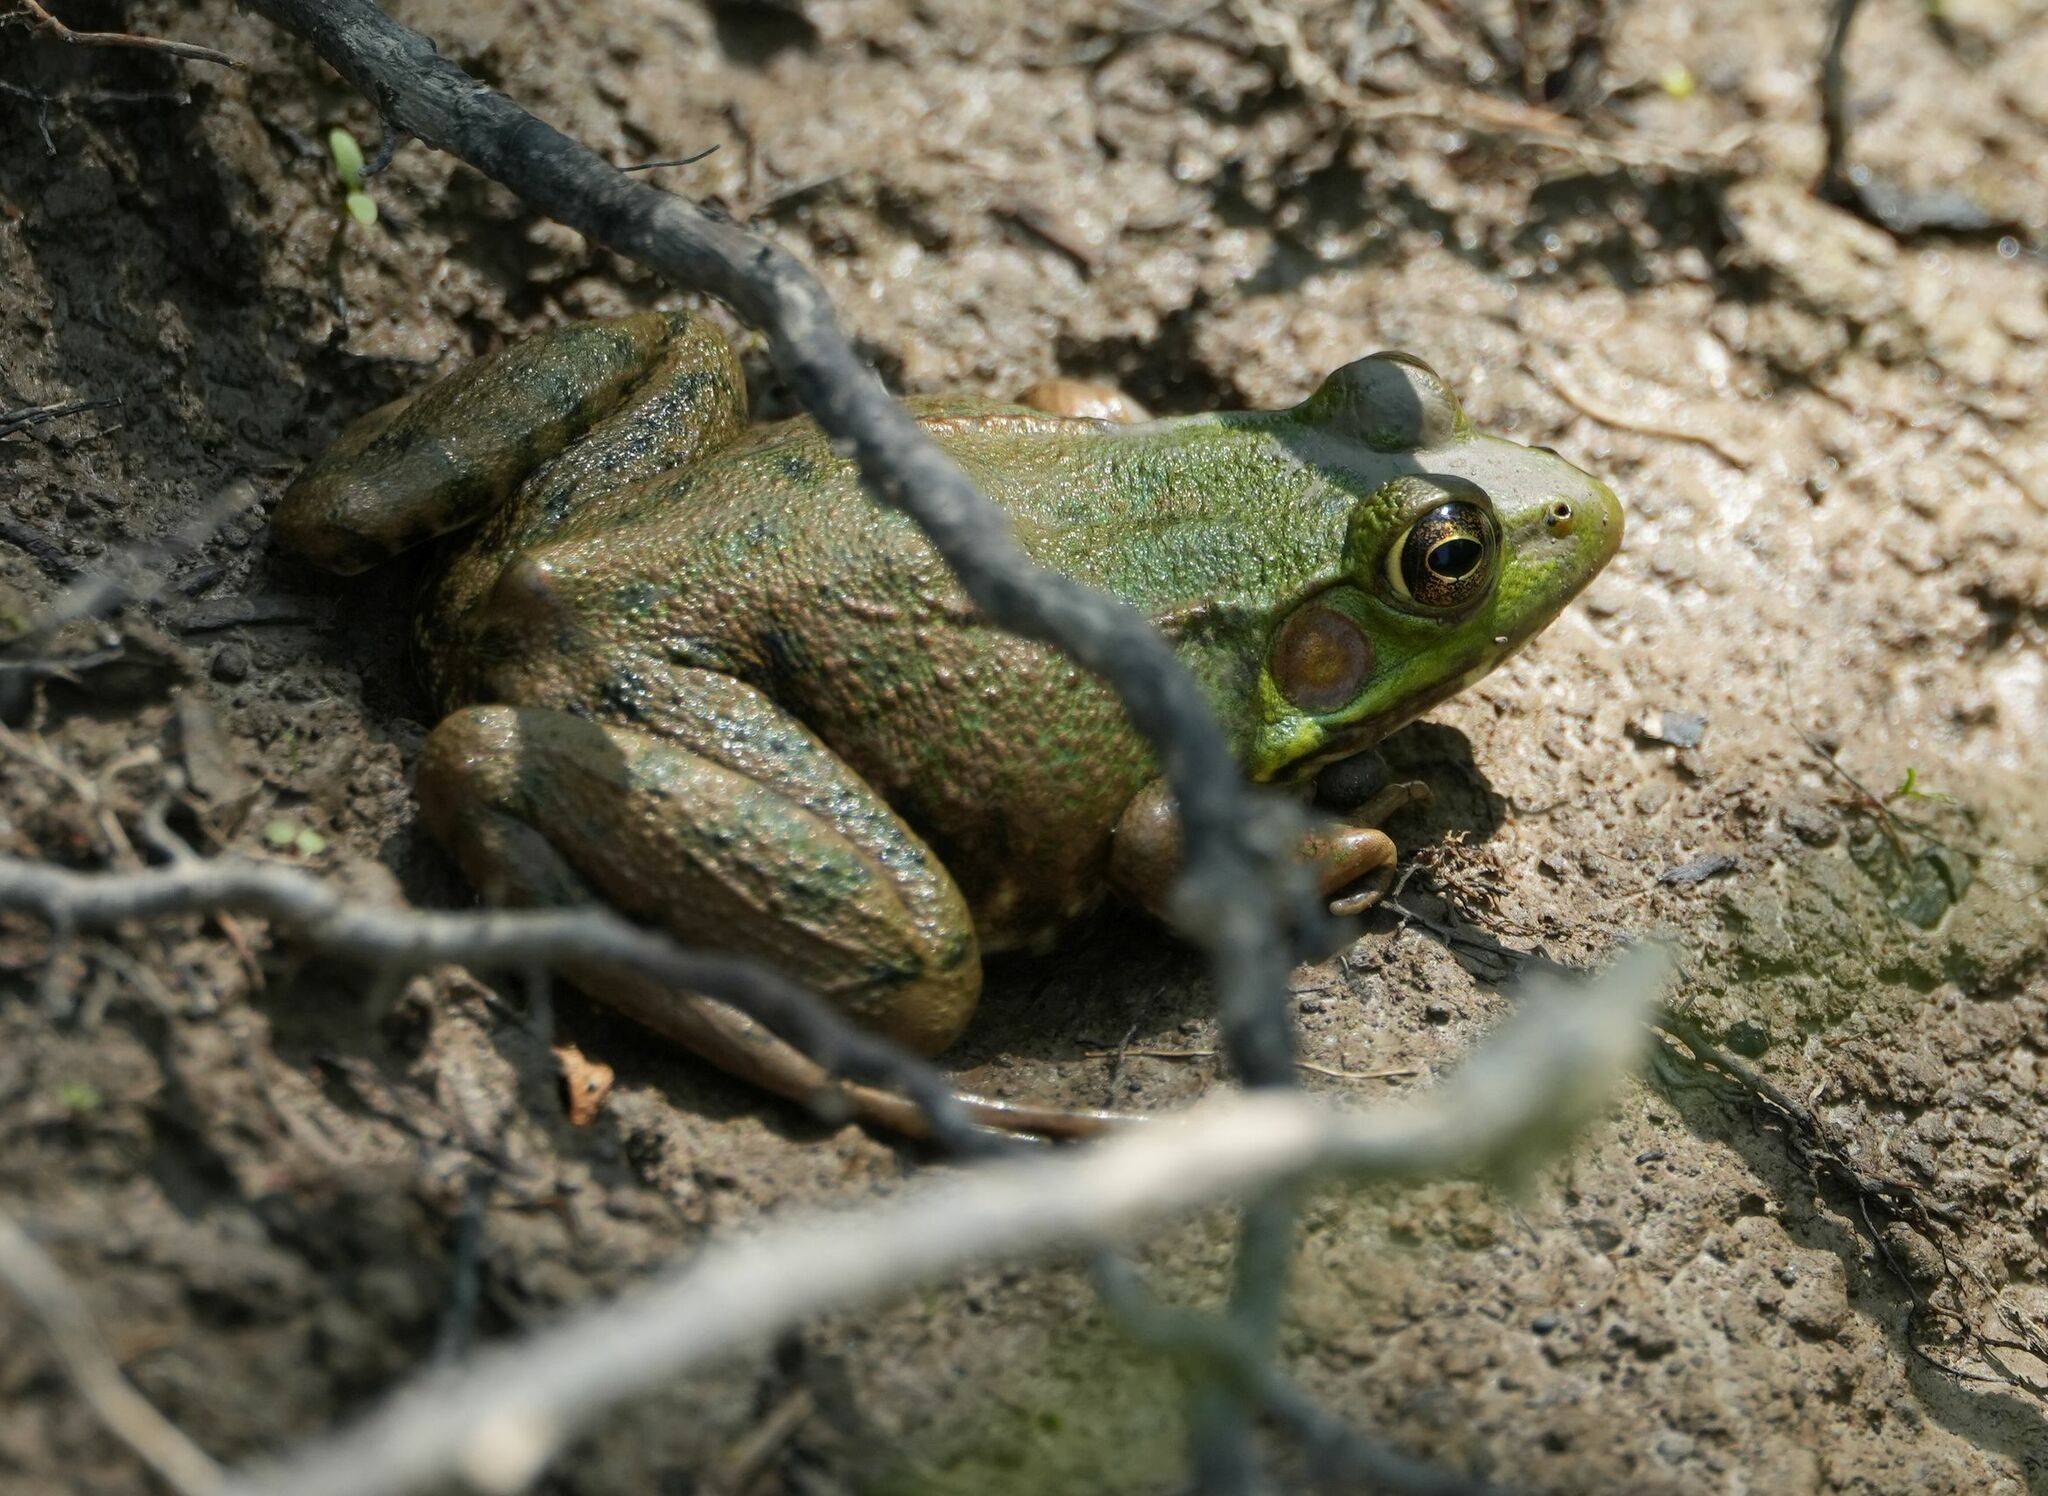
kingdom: Animalia
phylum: Chordata
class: Amphibia
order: Anura
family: Ranidae
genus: Lithobates
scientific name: Lithobates clamitans
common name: Green frog
